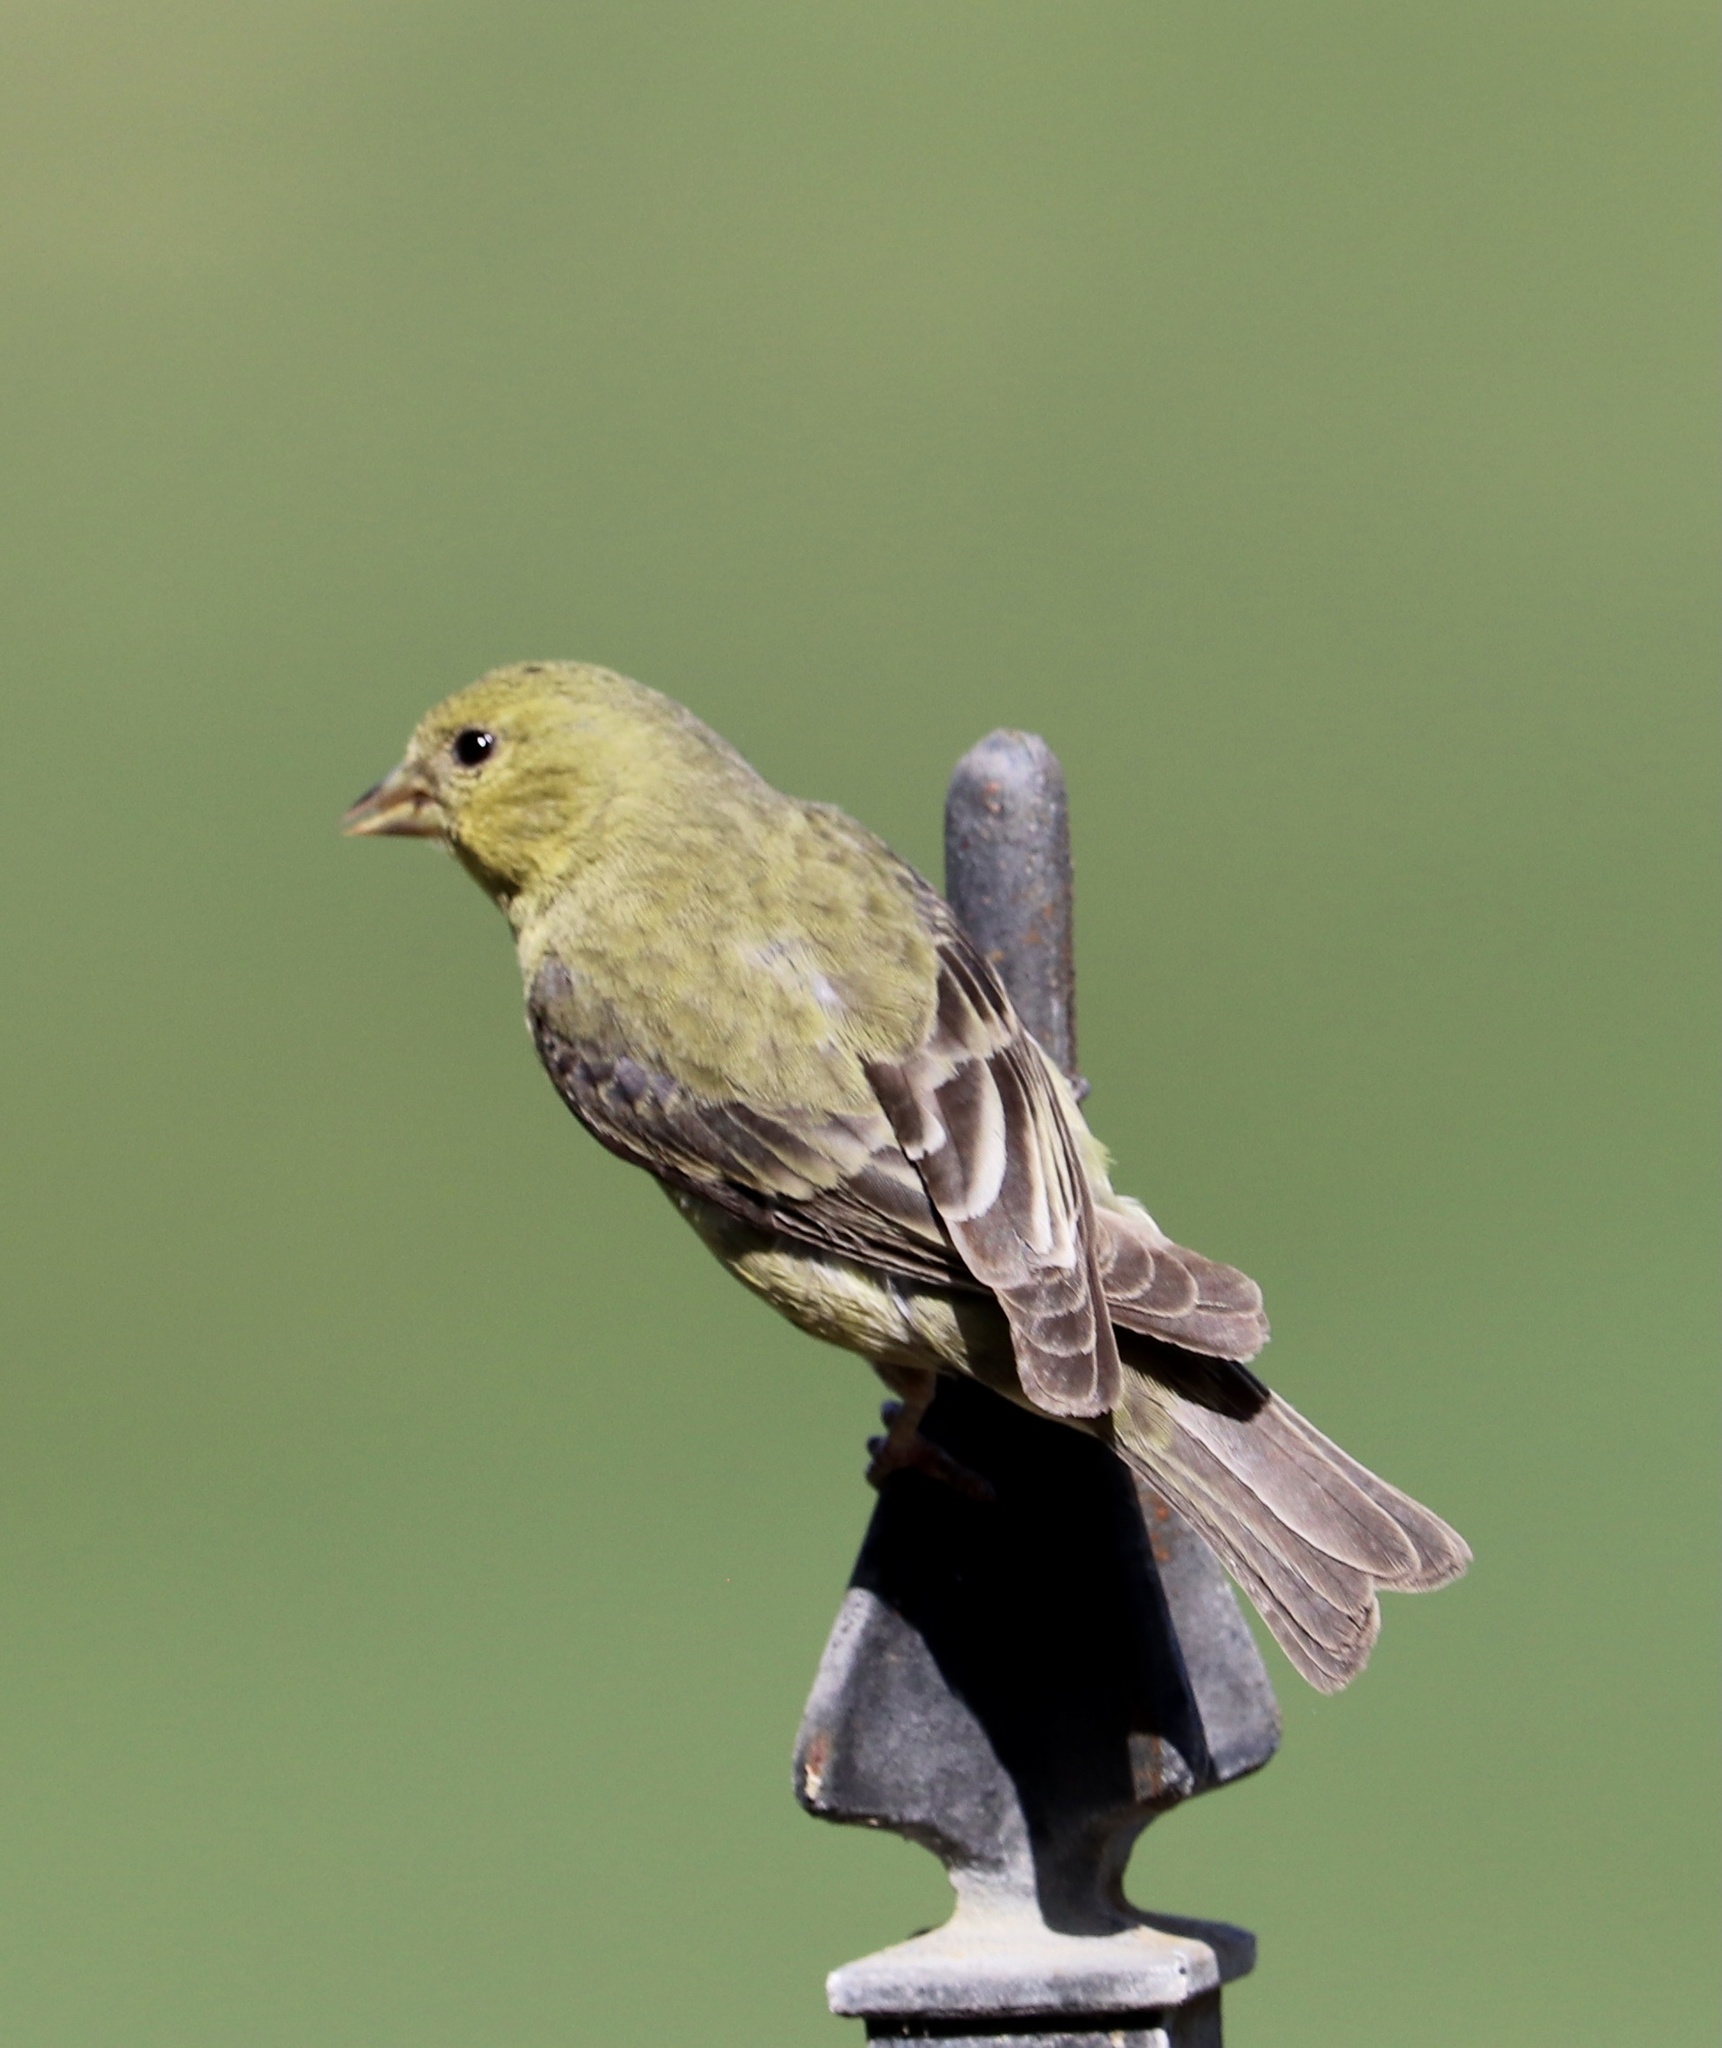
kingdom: Animalia
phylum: Chordata
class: Aves
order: Passeriformes
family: Fringillidae
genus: Spinus
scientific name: Spinus psaltria
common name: Lesser goldfinch
